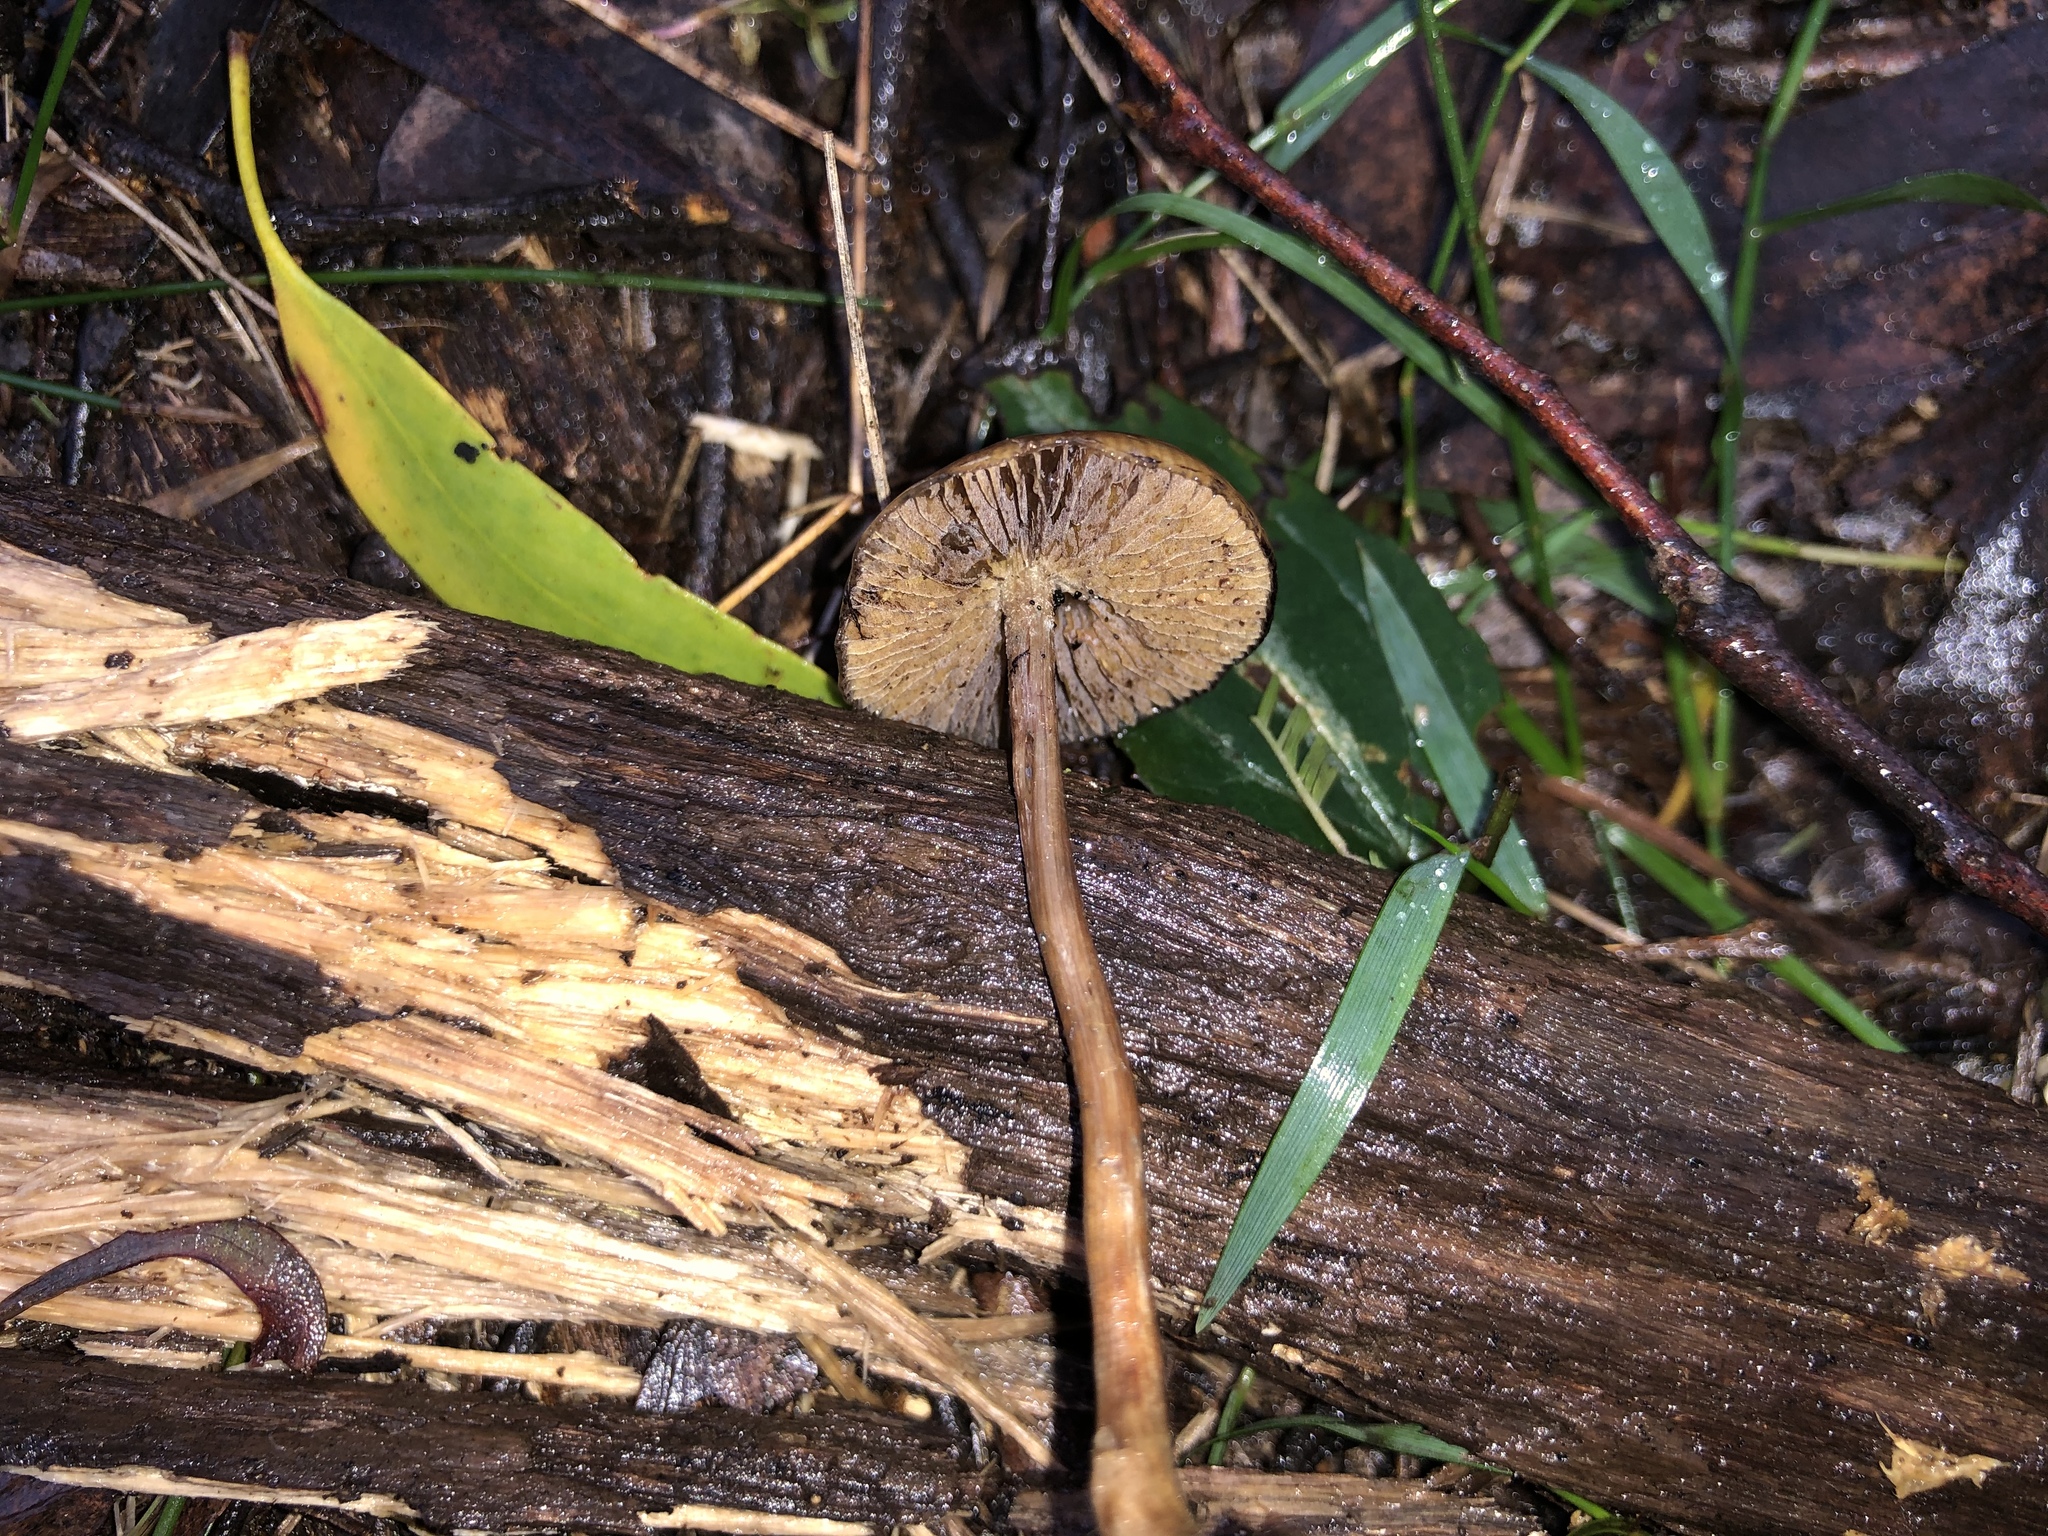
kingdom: Fungi
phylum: Basidiomycota
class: Agaricomycetes
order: Agaricales
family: Hymenogastraceae
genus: Psilocybe
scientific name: Psilocybe subaeruginosa
